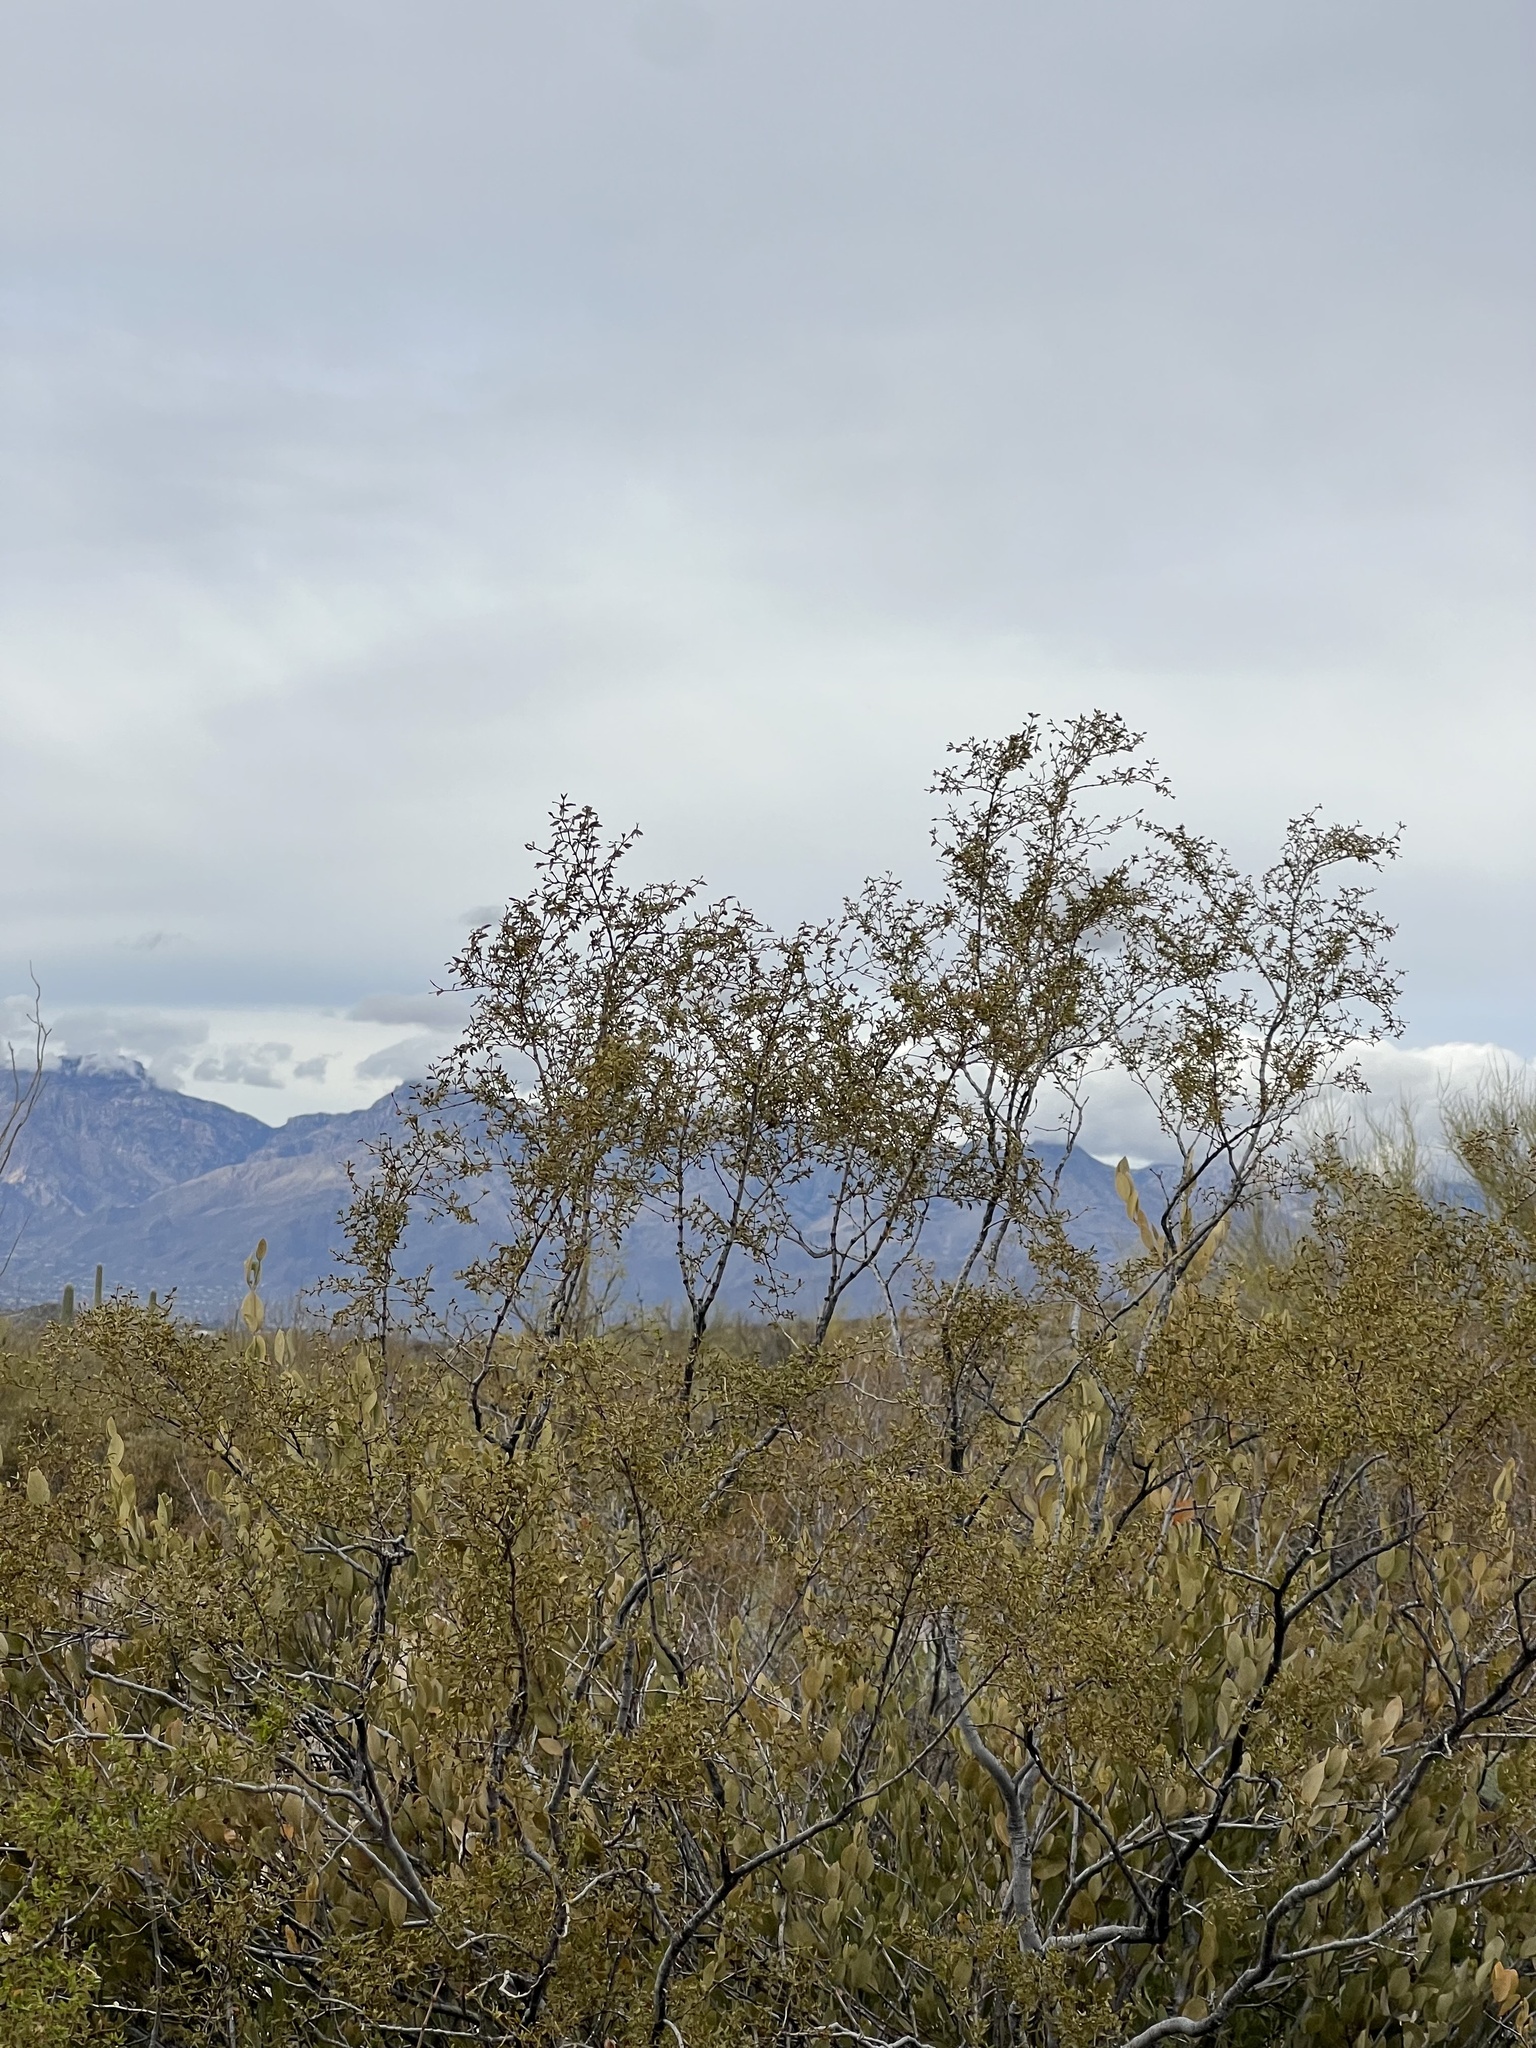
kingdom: Plantae
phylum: Tracheophyta
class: Magnoliopsida
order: Zygophyllales
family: Zygophyllaceae
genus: Larrea
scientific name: Larrea tridentata
